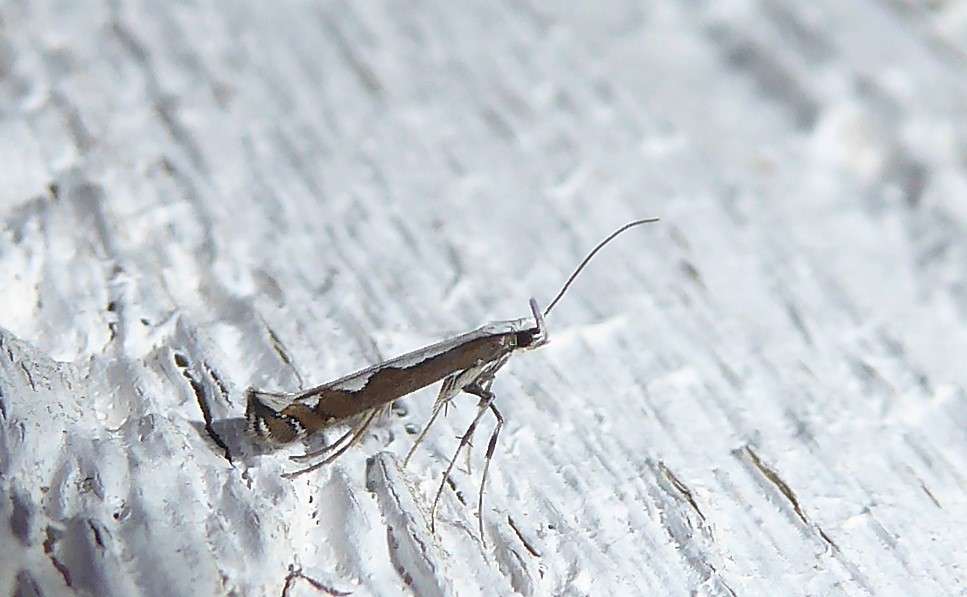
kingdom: Animalia
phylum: Arthropoda
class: Insecta
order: Lepidoptera
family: Gracillariidae
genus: Dialectica
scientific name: Dialectica scalariella
